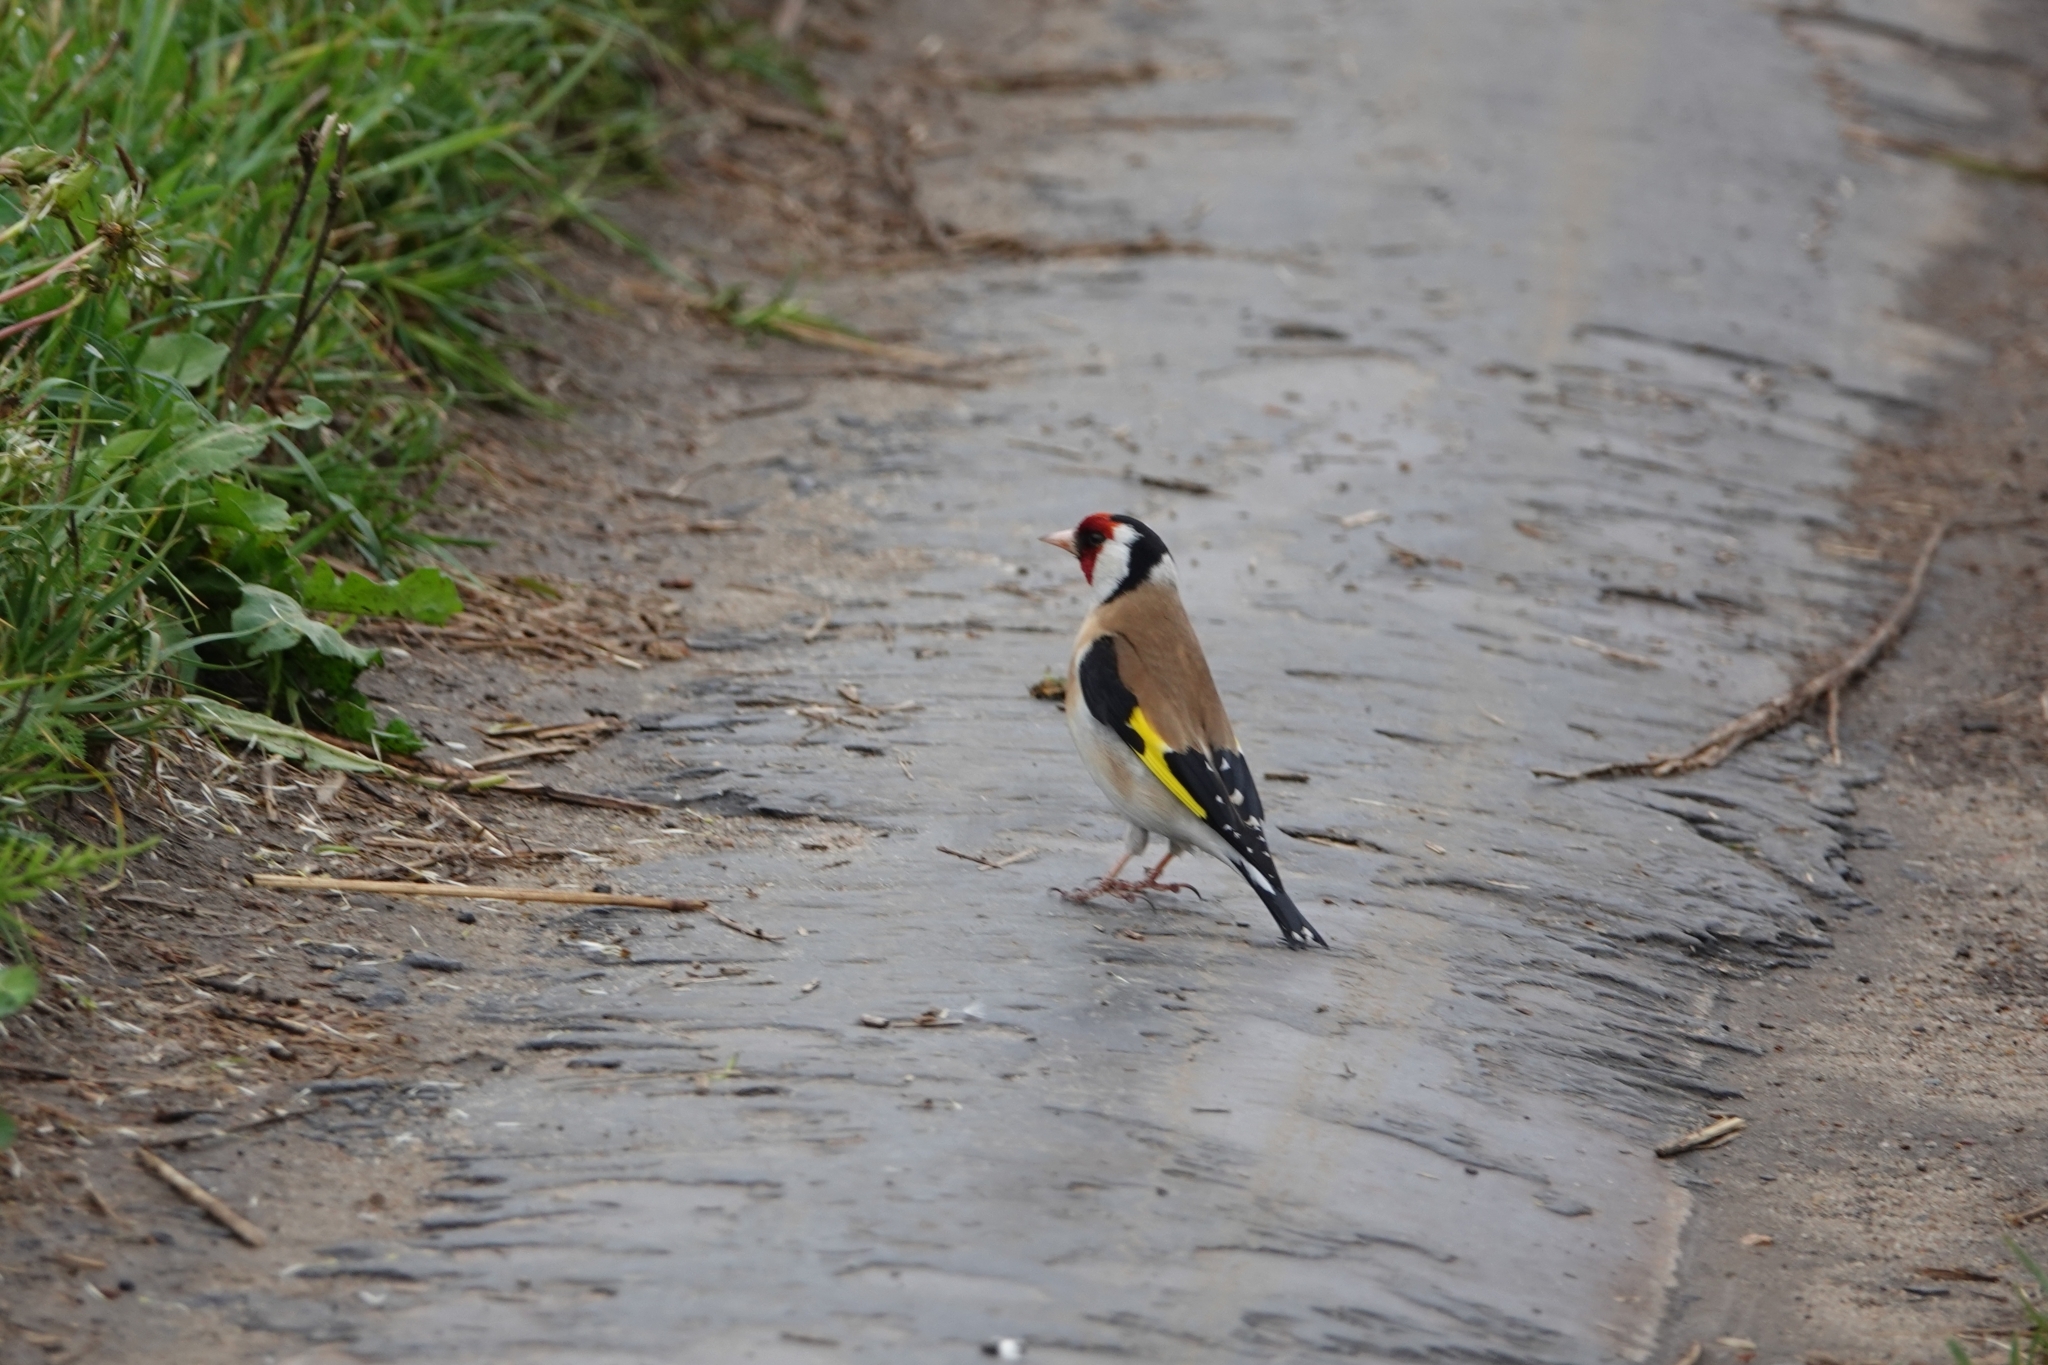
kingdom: Animalia
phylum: Chordata
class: Aves
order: Passeriformes
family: Fringillidae
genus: Carduelis
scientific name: Carduelis carduelis
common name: European goldfinch
